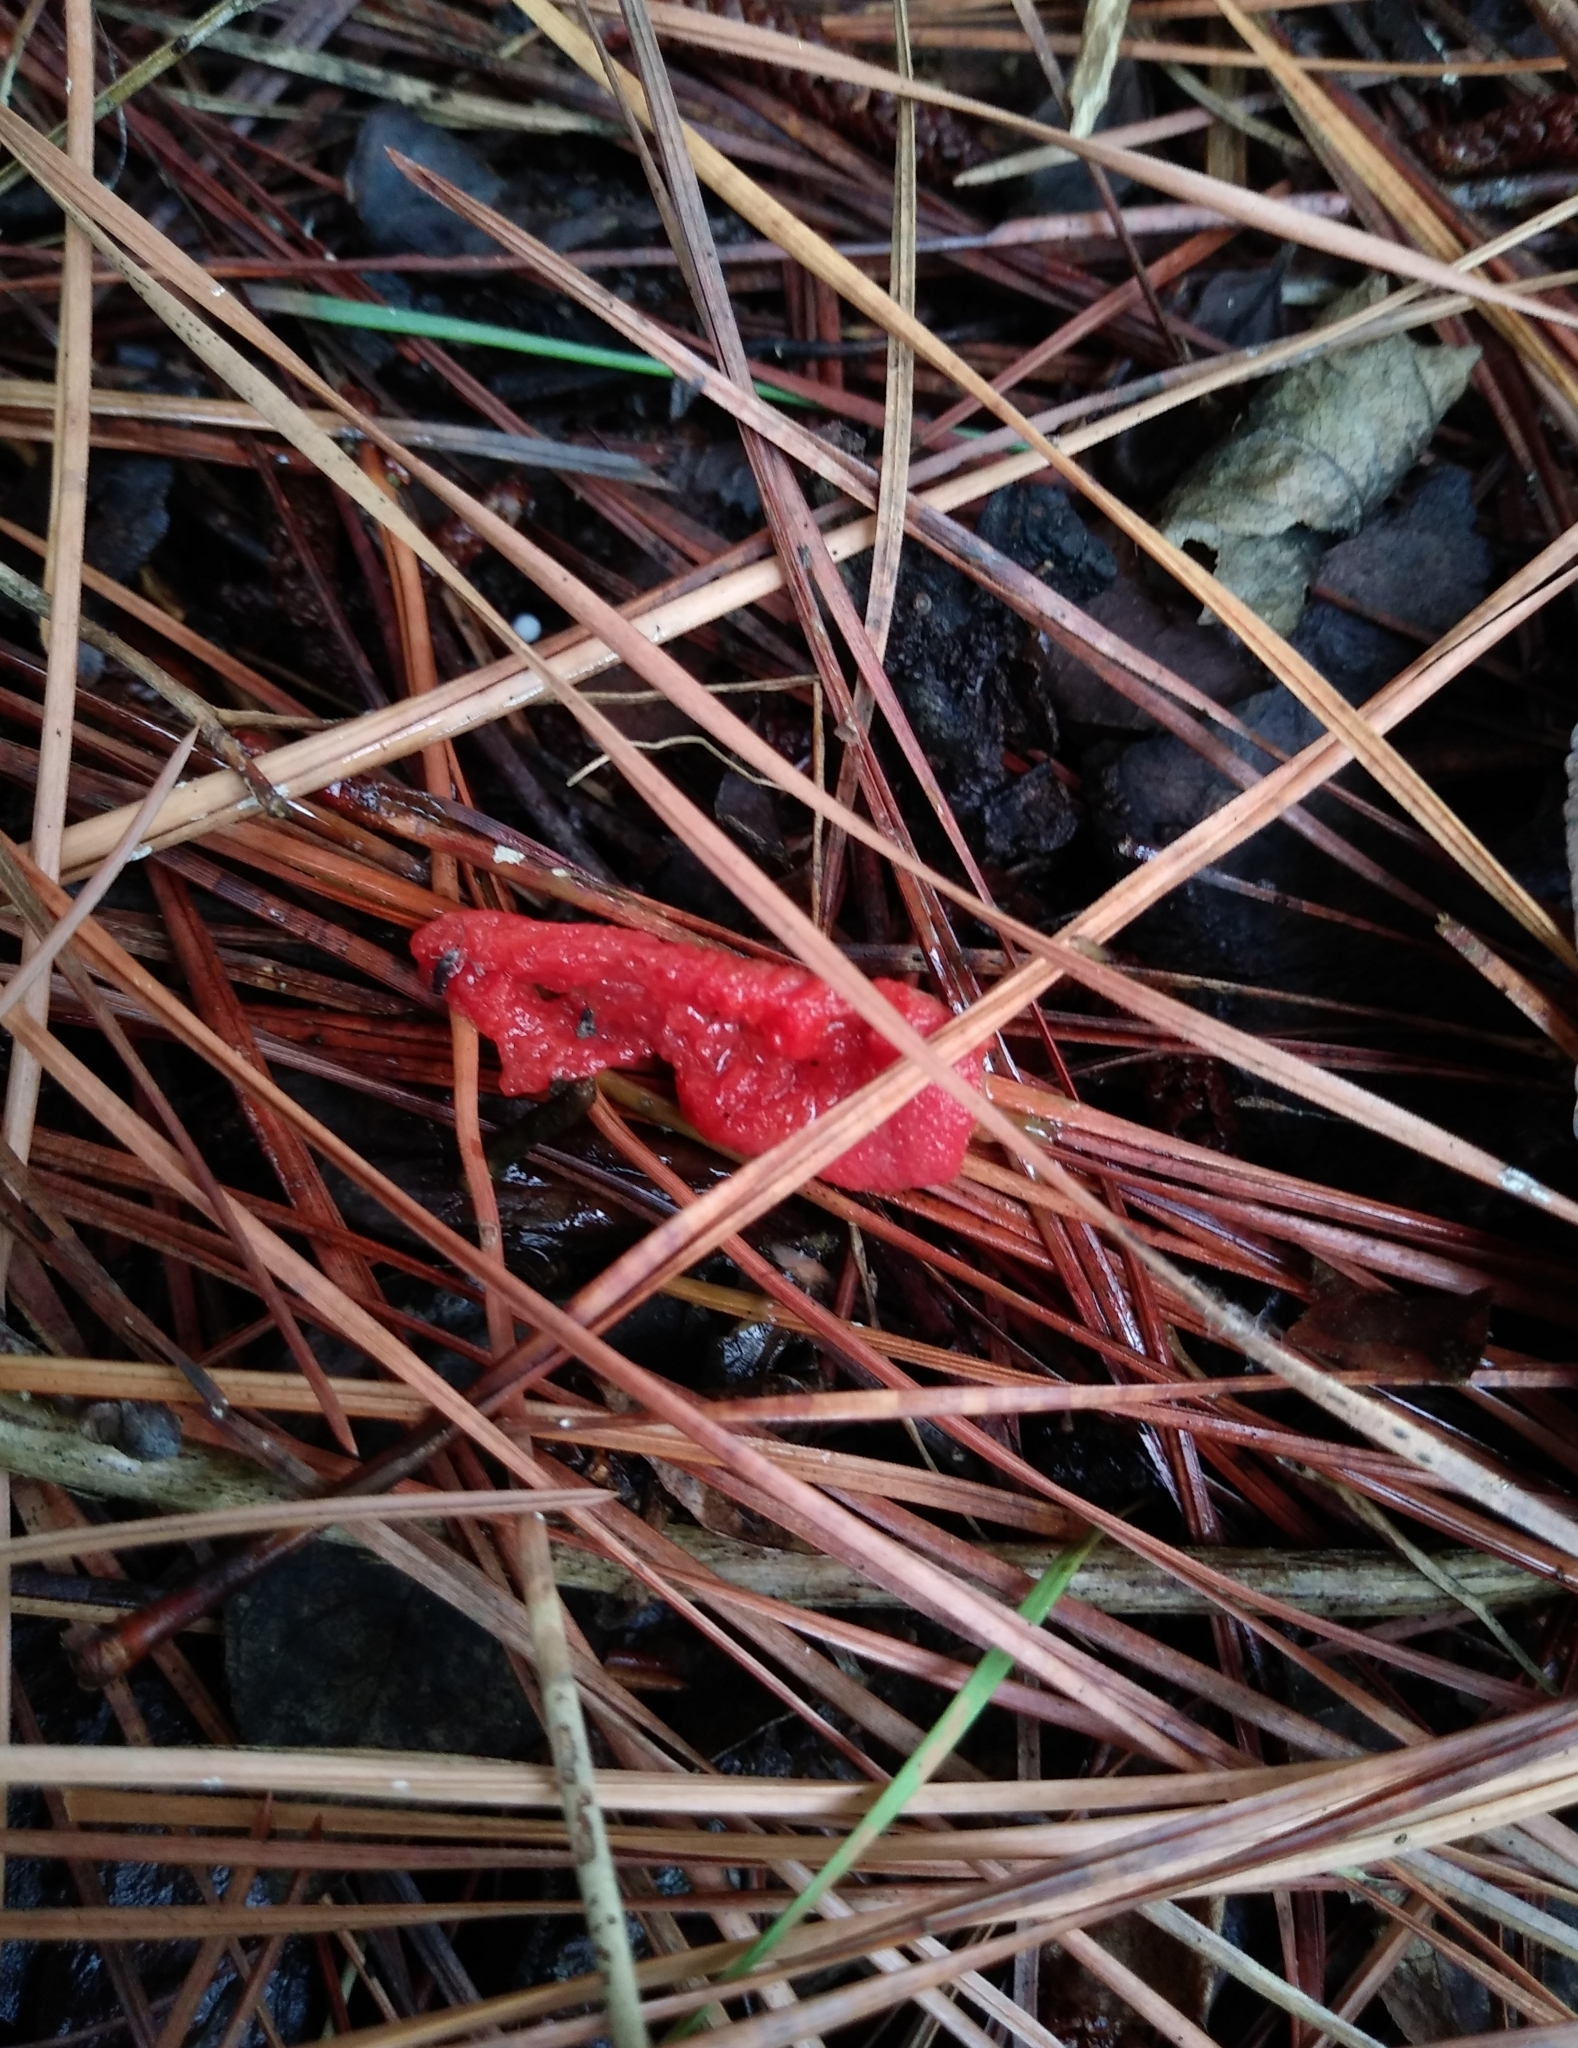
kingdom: Fungi
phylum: Basidiomycota
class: Agaricomycetes
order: Phallales
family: Phallaceae
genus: Mutinus
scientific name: Mutinus elegans
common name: Devil's dipstick
